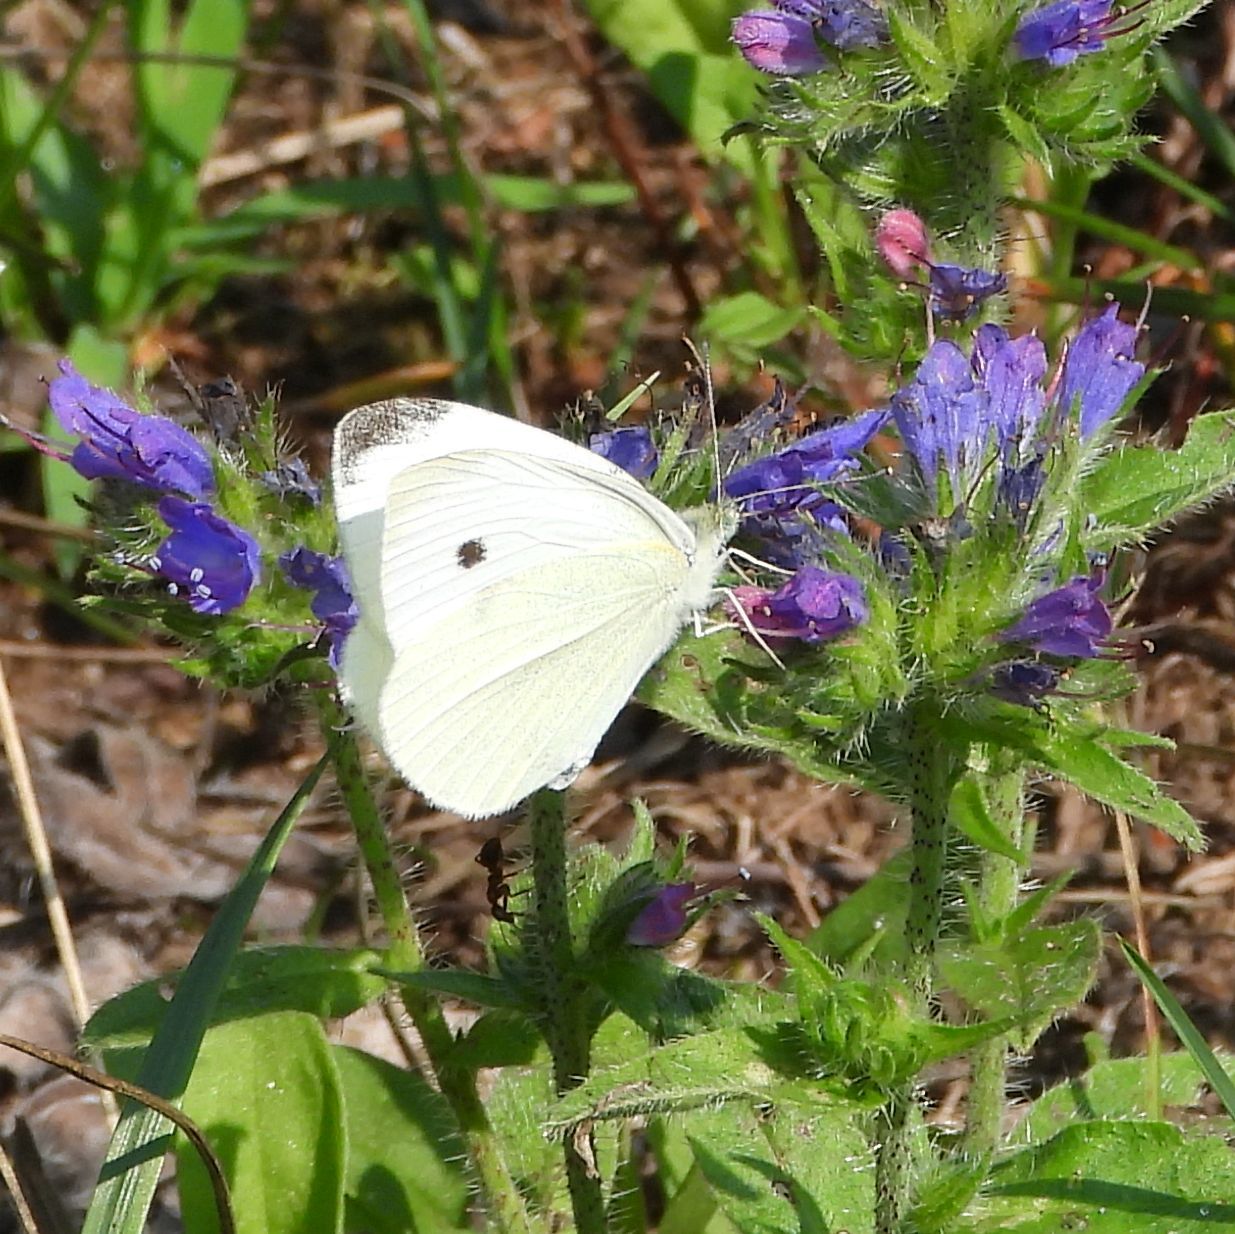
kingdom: Animalia
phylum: Arthropoda
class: Insecta
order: Lepidoptera
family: Pieridae
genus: Pieris
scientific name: Pieris rapae
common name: Small white
